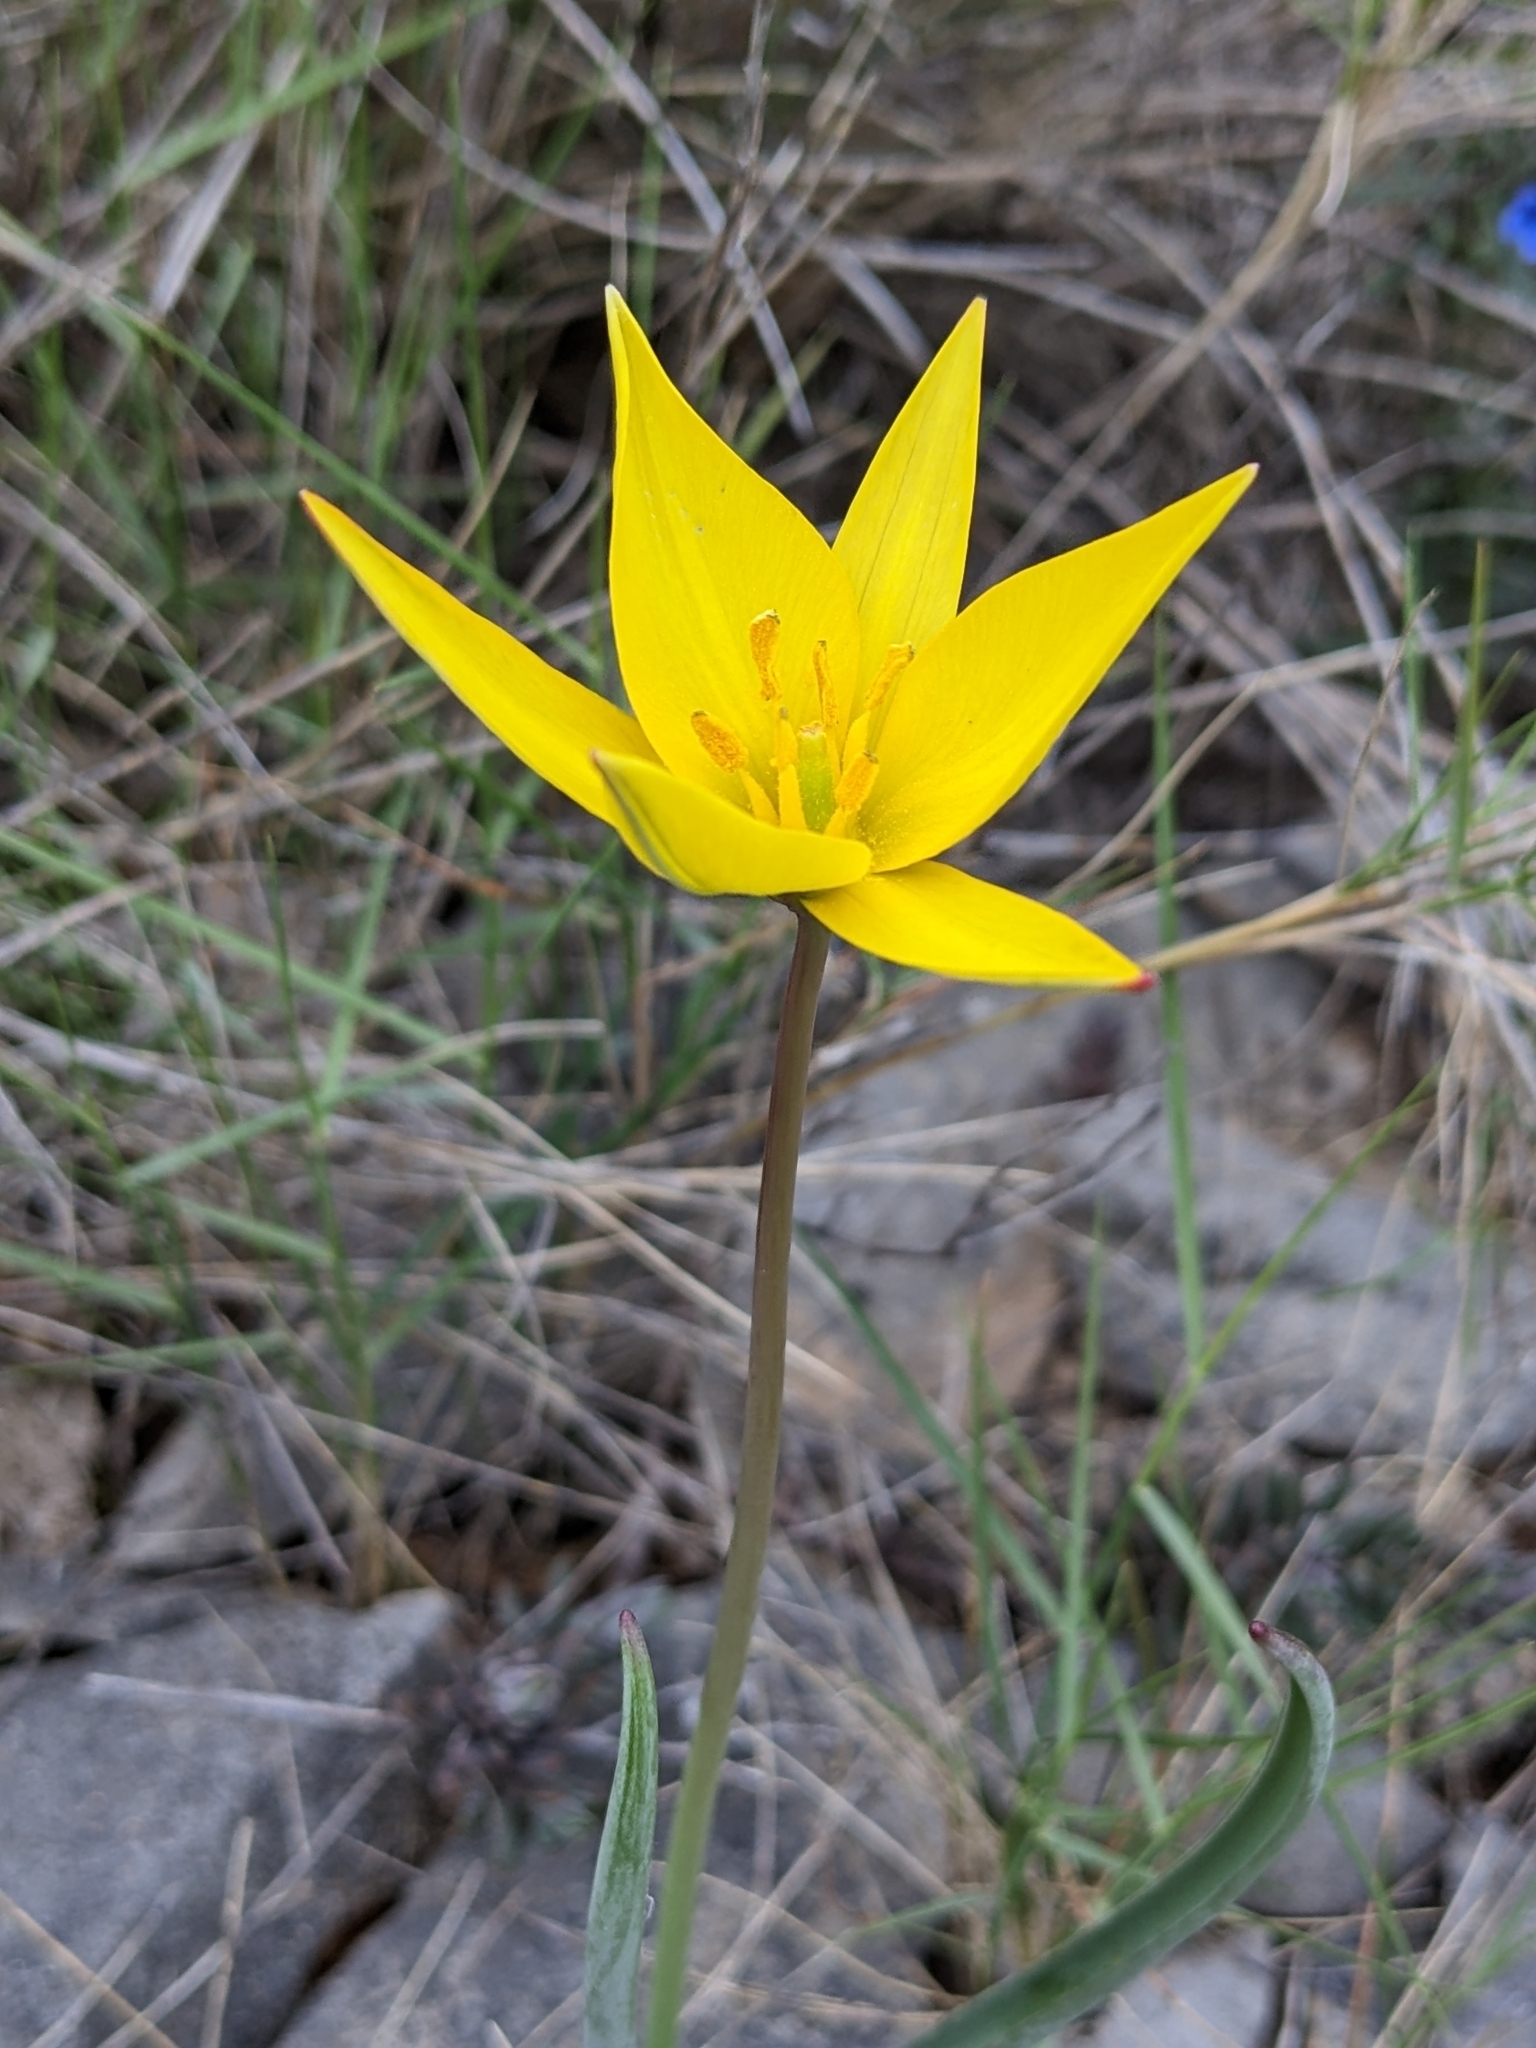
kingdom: Plantae
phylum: Tracheophyta
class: Liliopsida
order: Liliales
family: Liliaceae
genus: Tulipa
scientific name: Tulipa sylvestris
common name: Wild tulip
